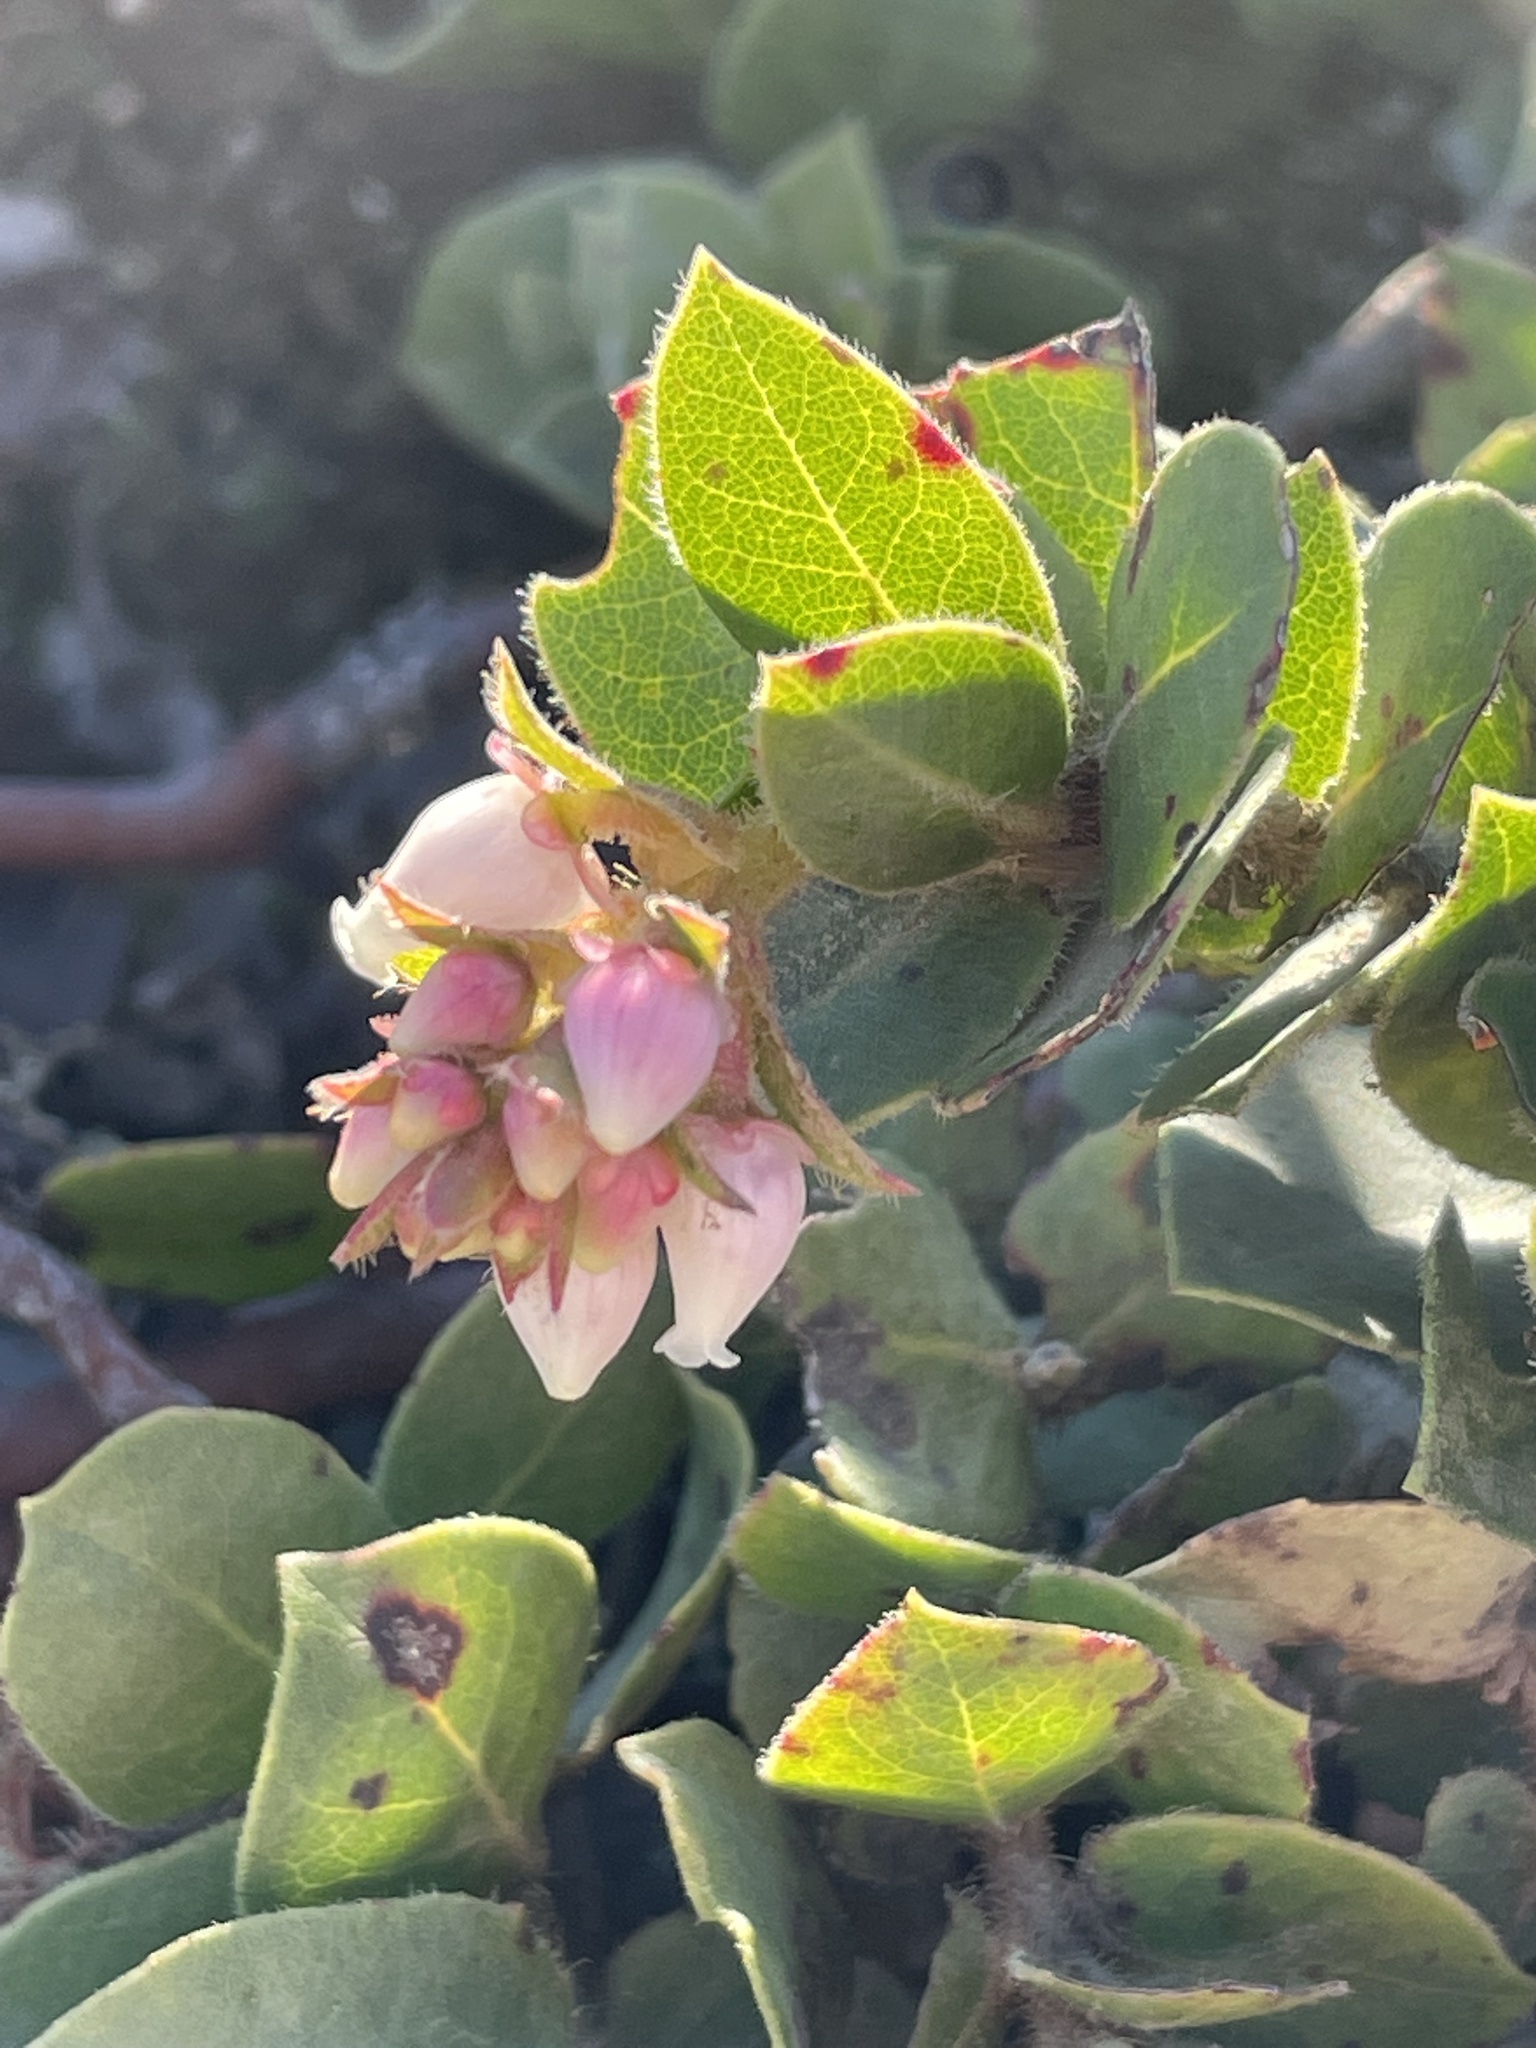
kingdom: Plantae
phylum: Tracheophyta
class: Magnoliopsida
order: Ericales
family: Ericaceae
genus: Arctostaphylos
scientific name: Arctostaphylos imbricata
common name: San bruno mountain manzanita
